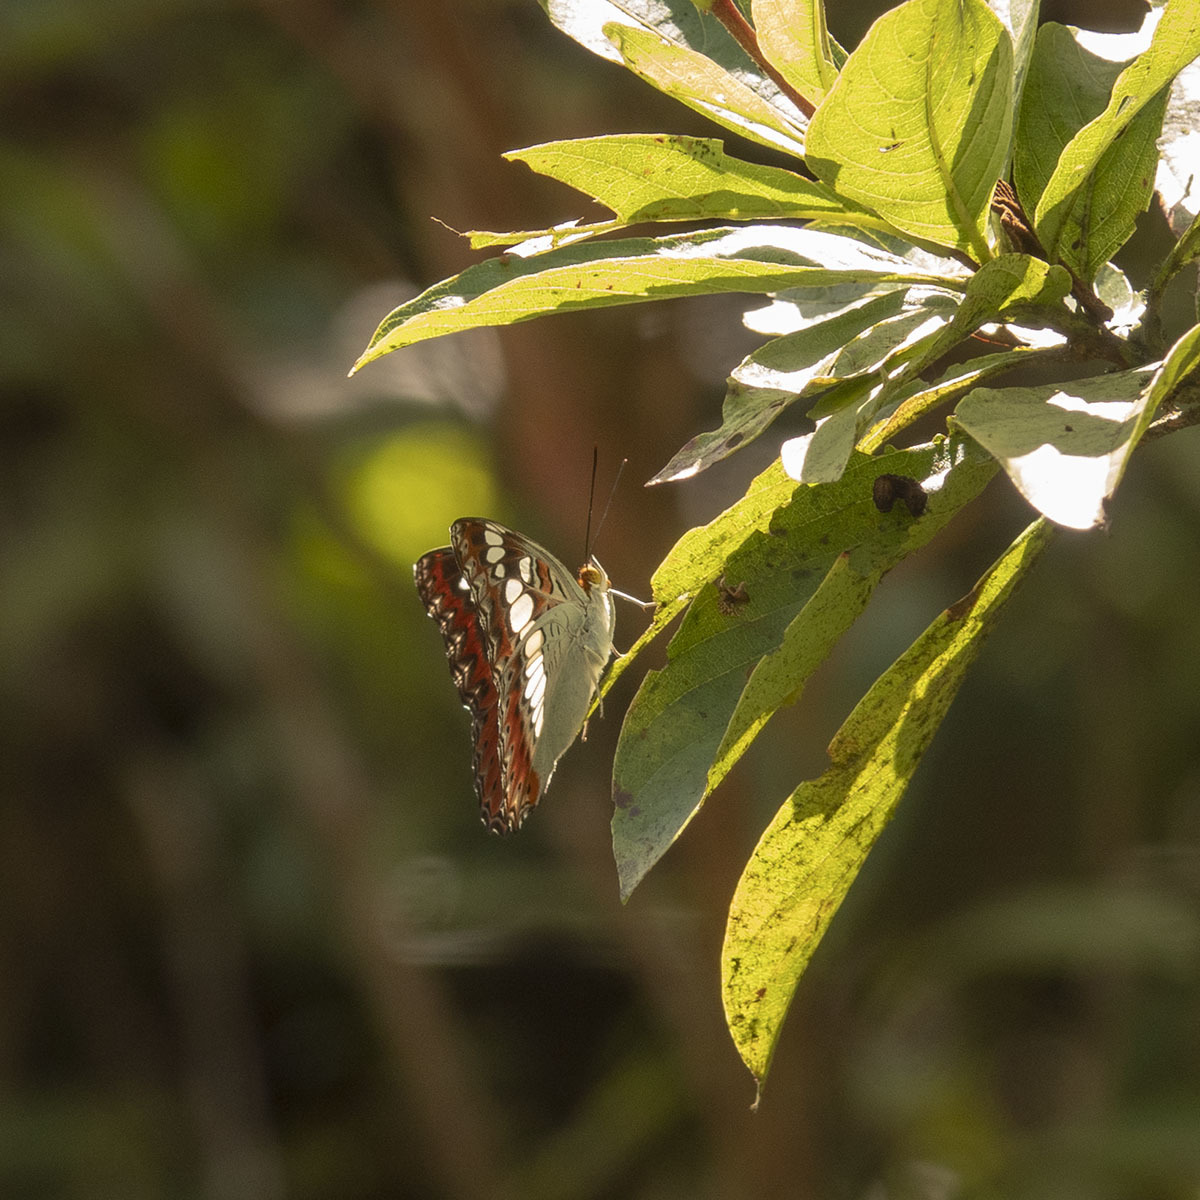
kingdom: Animalia
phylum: Arthropoda
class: Insecta
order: Lepidoptera
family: Nymphalidae
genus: Limenitis
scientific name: Limenitis Moduza procris
